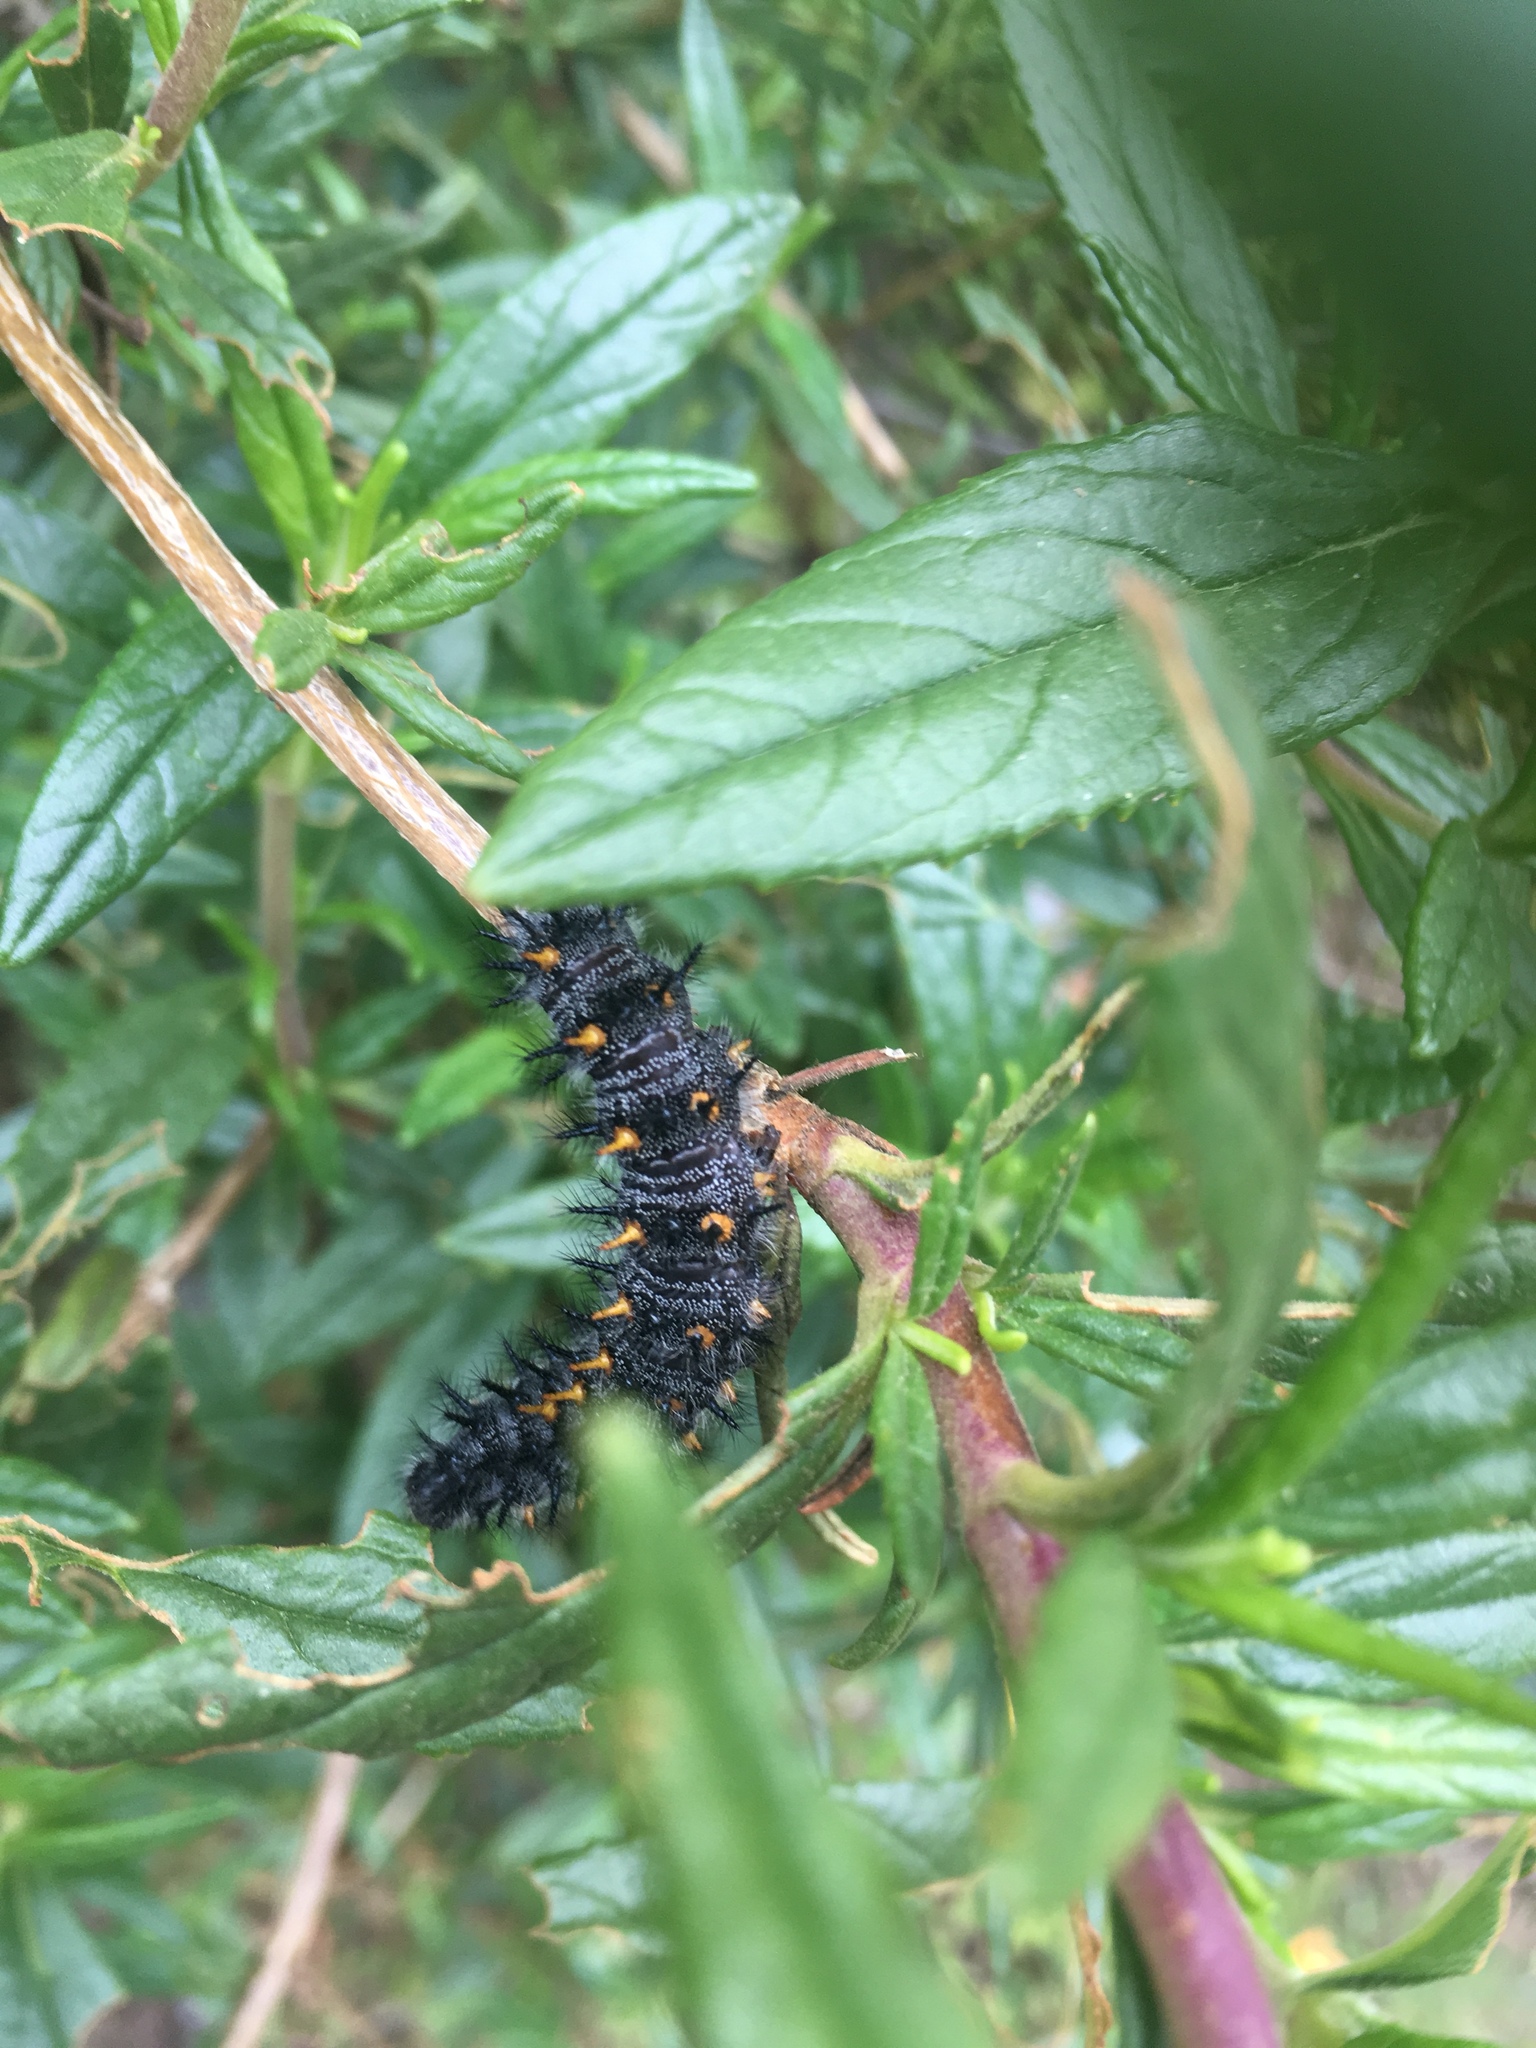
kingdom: Animalia
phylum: Arthropoda
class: Insecta
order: Lepidoptera
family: Nymphalidae
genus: Occidryas
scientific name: Occidryas chalcedona
